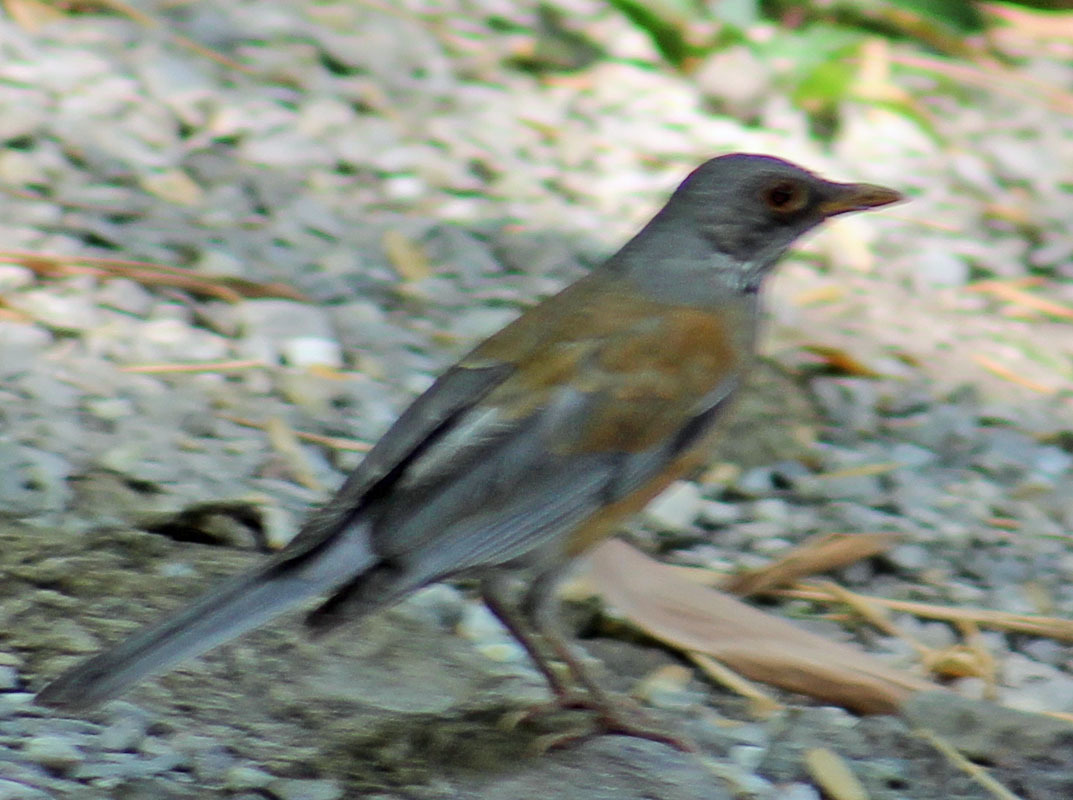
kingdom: Animalia
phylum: Chordata
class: Aves
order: Passeriformes
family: Turdidae
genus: Turdus
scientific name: Turdus rufopalliatus
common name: Rufous-backed robin
